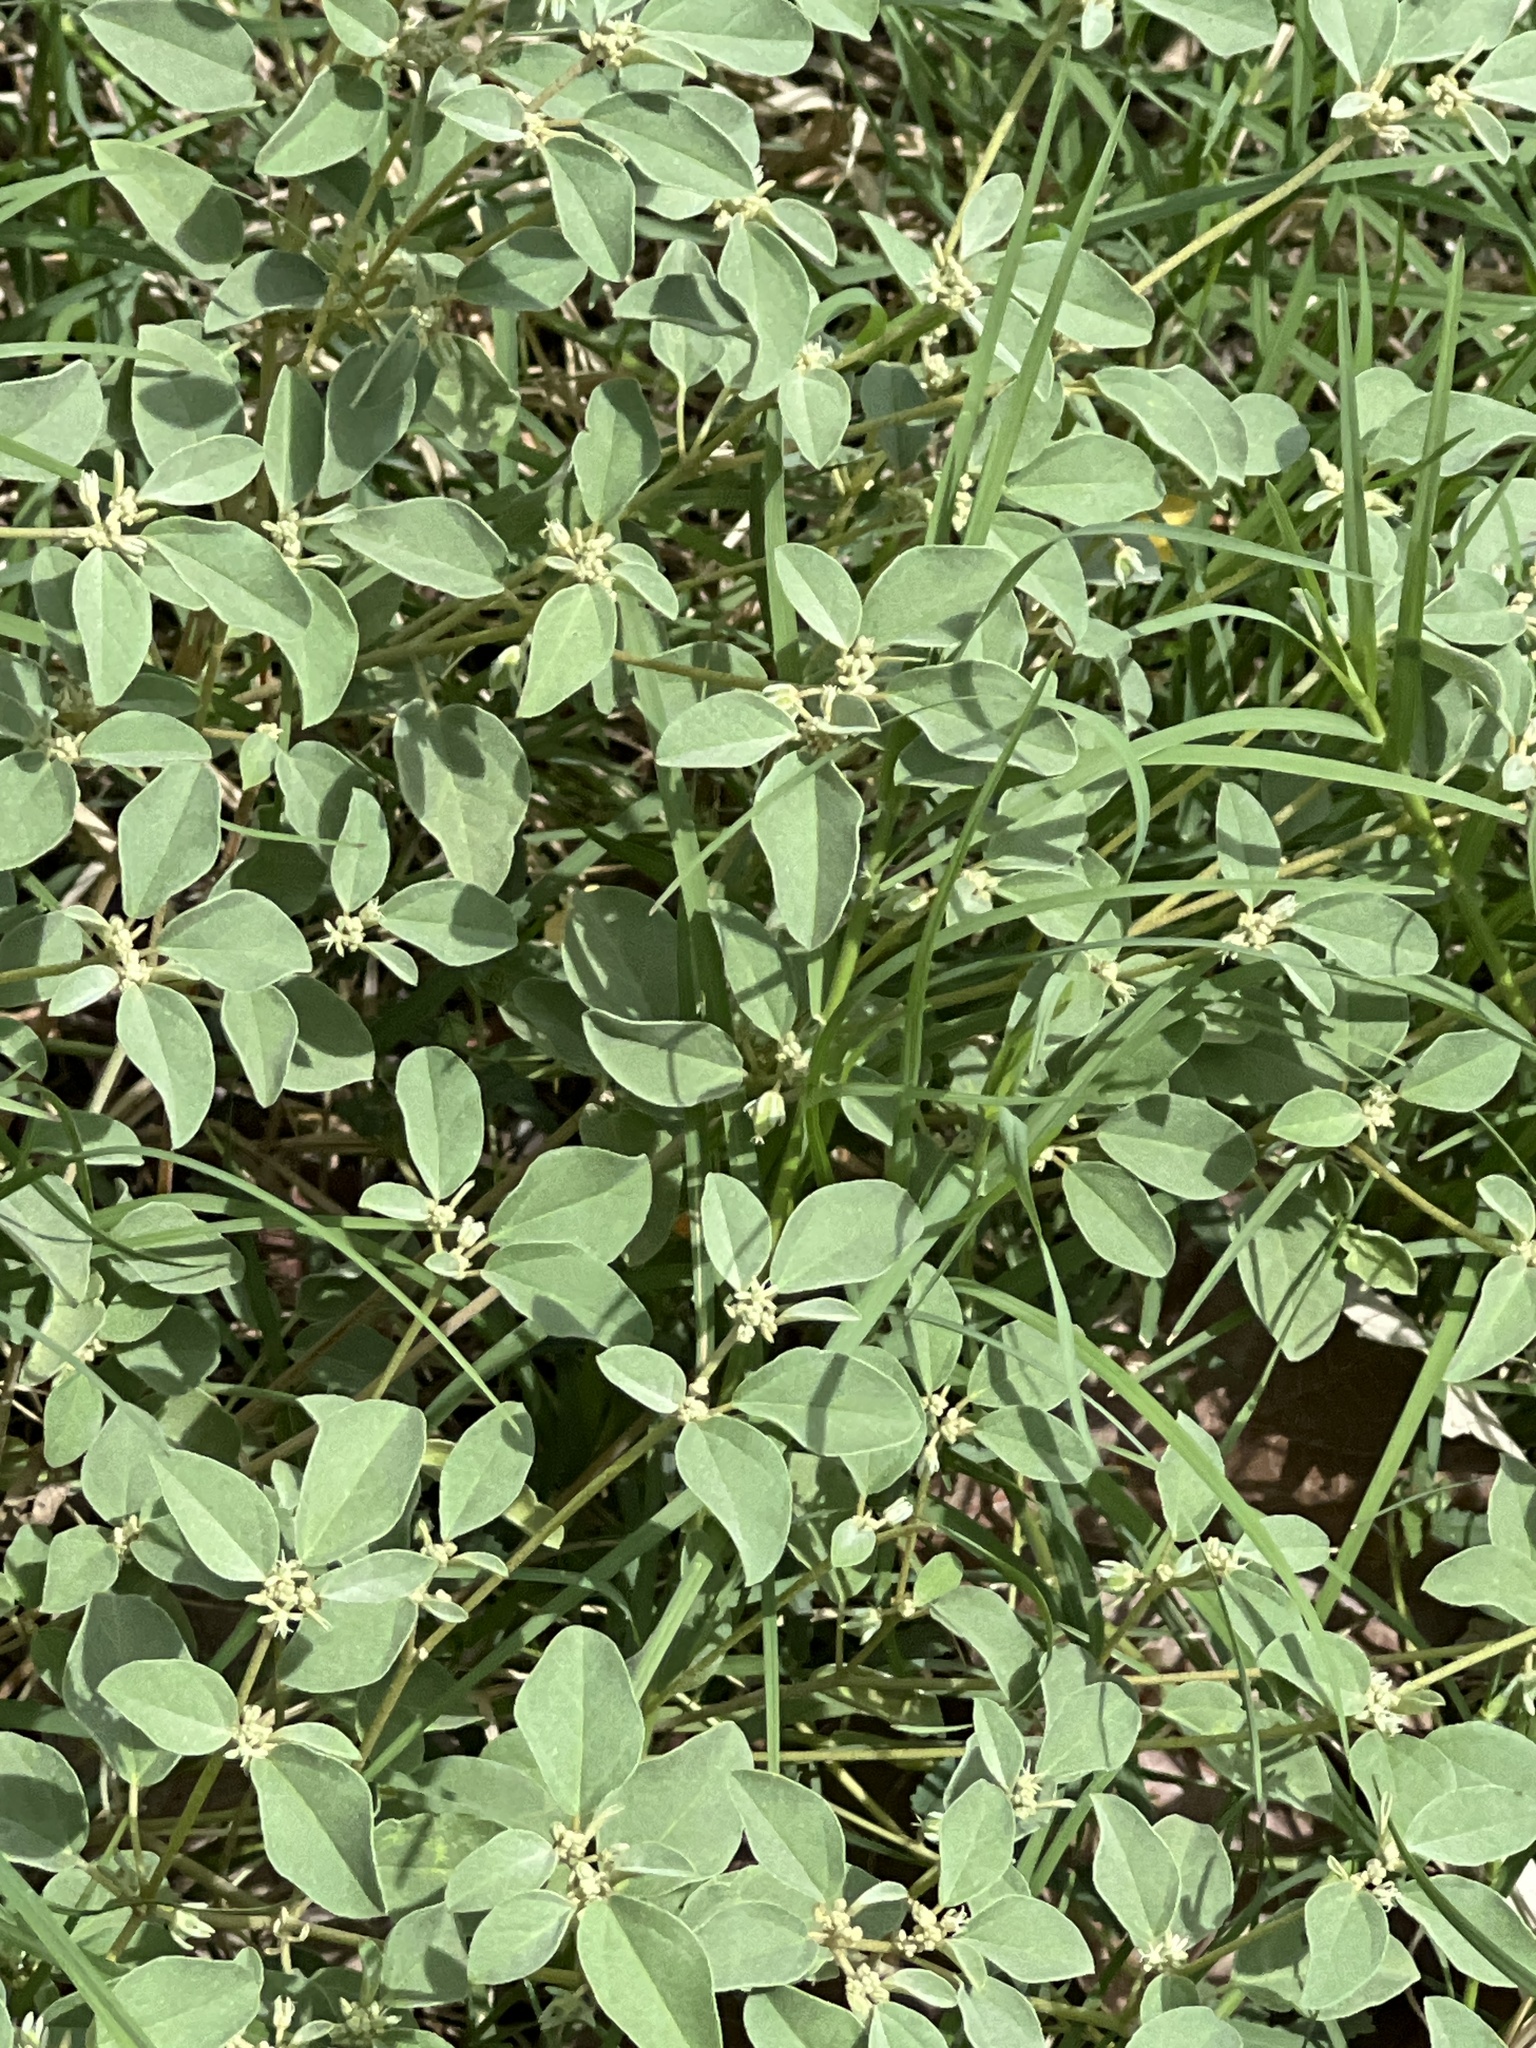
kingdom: Plantae
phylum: Tracheophyta
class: Magnoliopsida
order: Malpighiales
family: Euphorbiaceae
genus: Croton
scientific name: Croton monanthogynus
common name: One-seed croton
